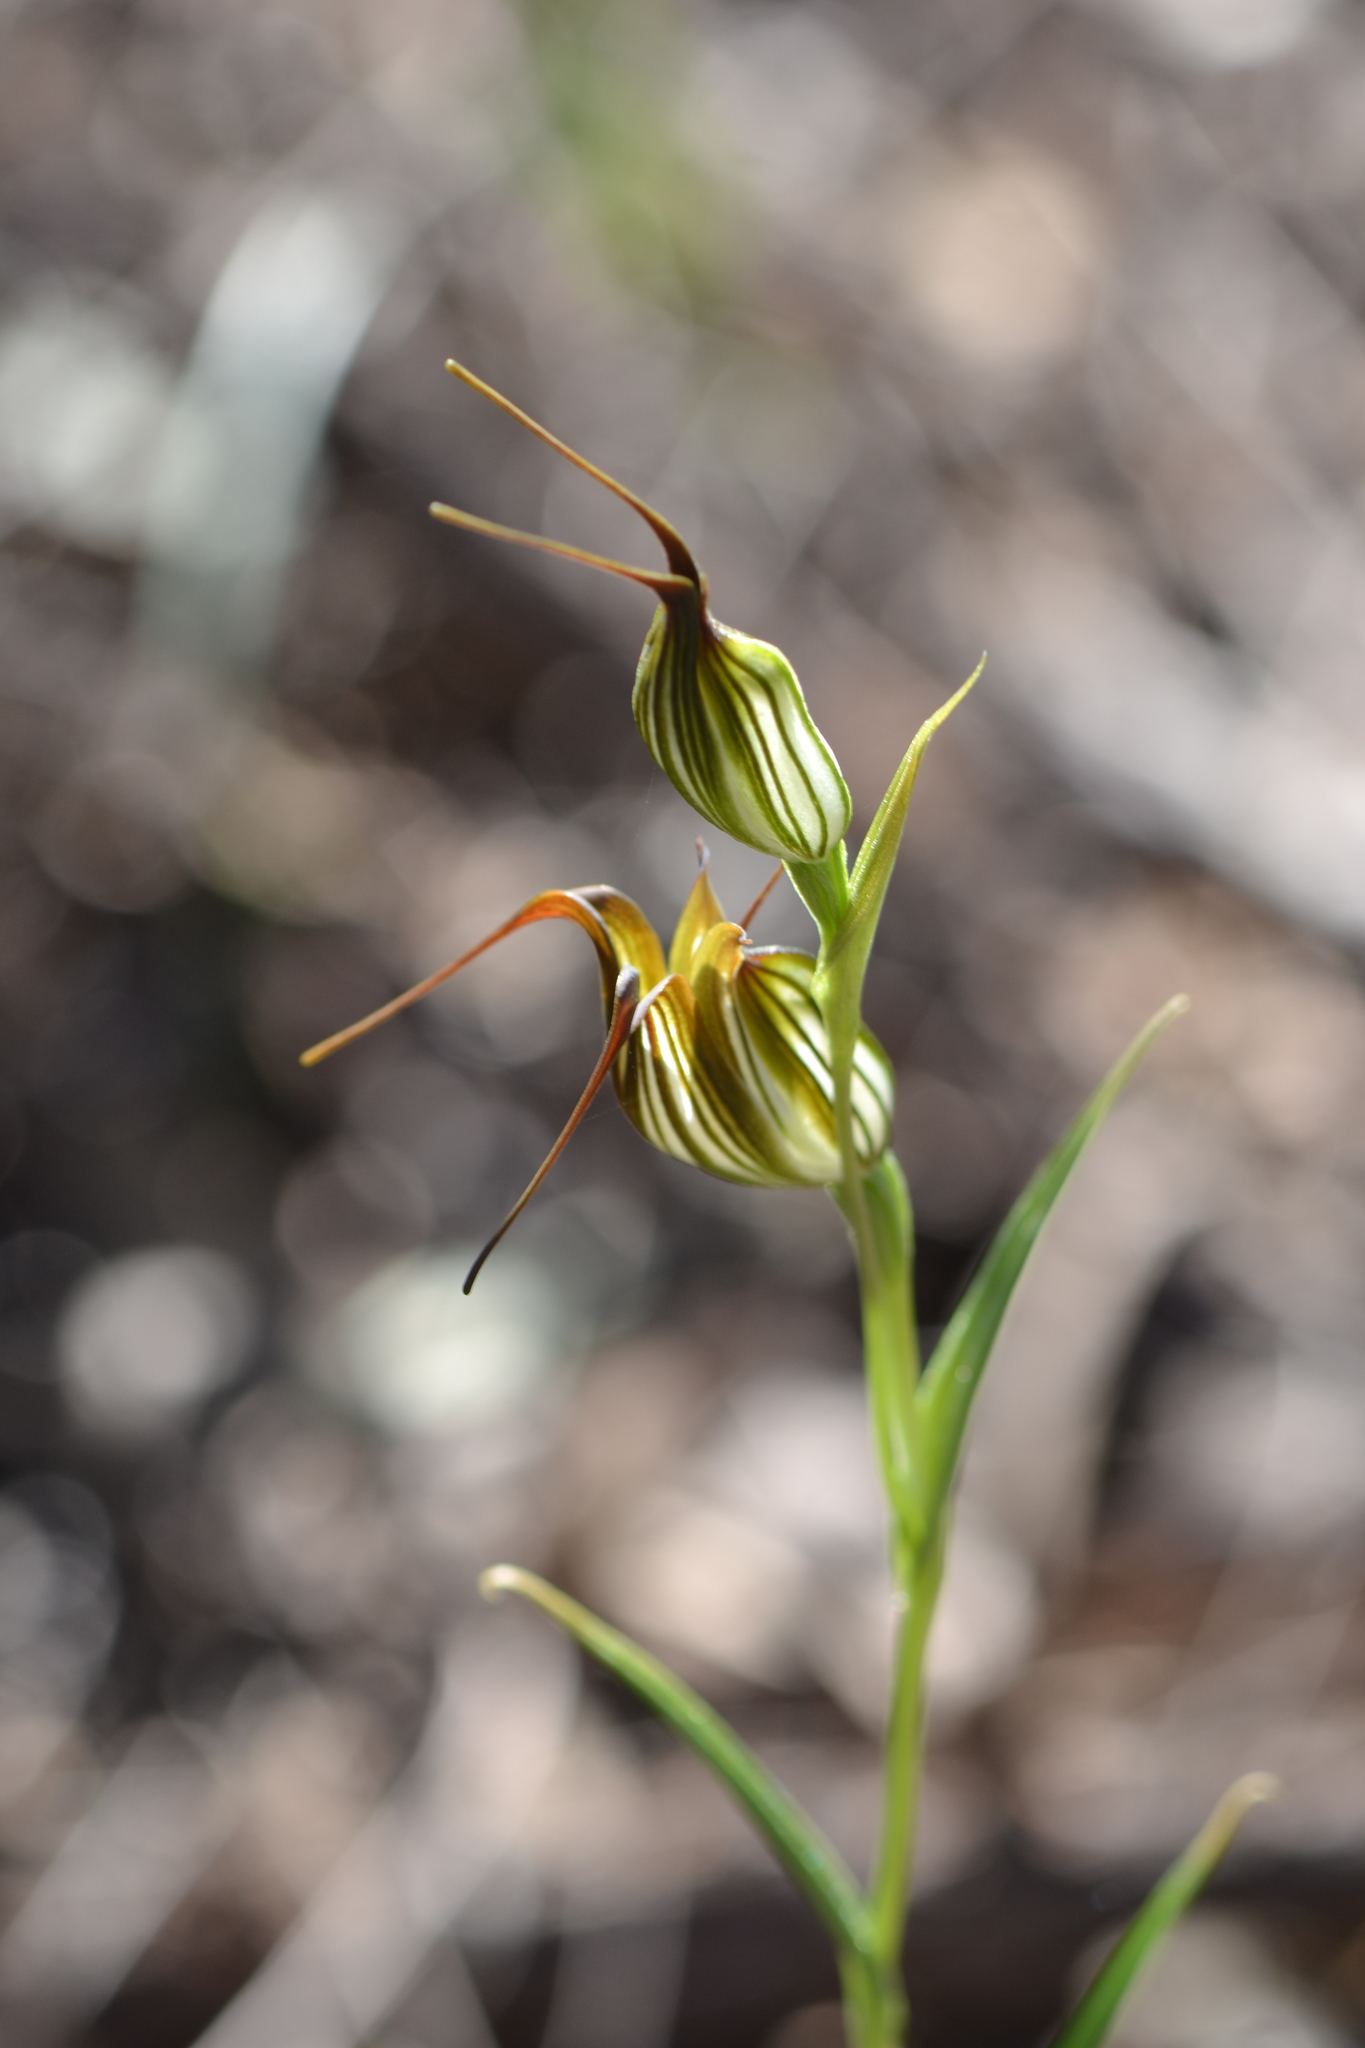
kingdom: Plantae
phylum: Tracheophyta
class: Liliopsida
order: Asparagales
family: Orchidaceae
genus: Pterostylis
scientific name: Pterostylis recurva
